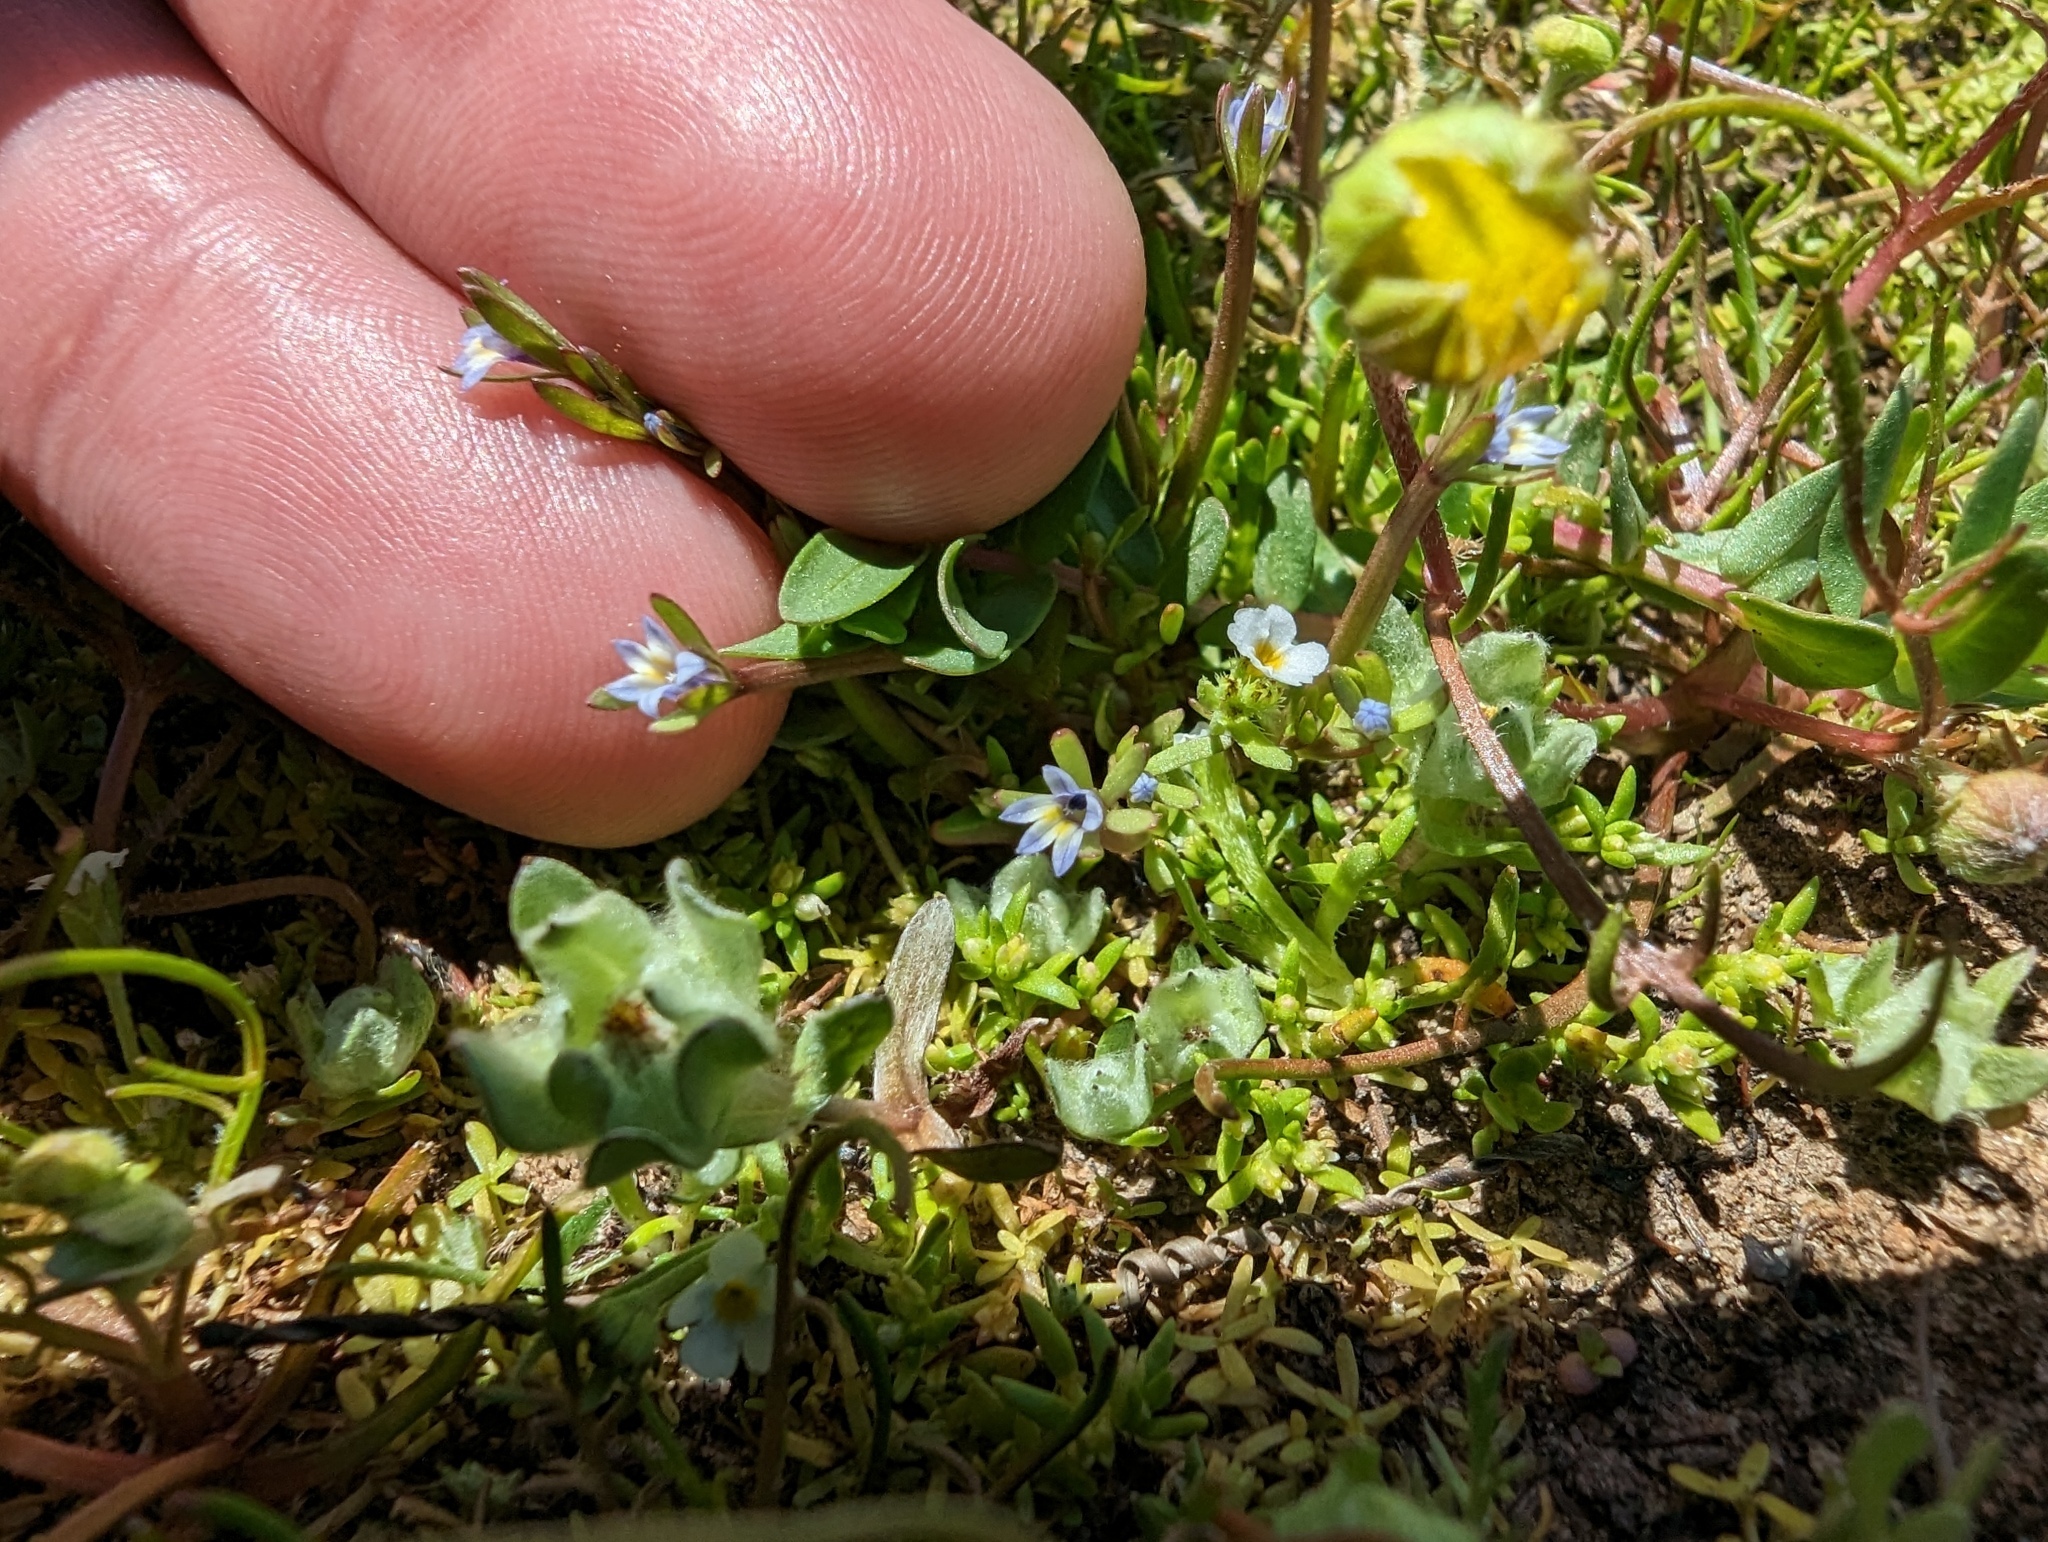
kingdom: Plantae
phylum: Tracheophyta
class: Magnoliopsida
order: Asterales
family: Campanulaceae
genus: Downingia
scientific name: Downingia pusilla
